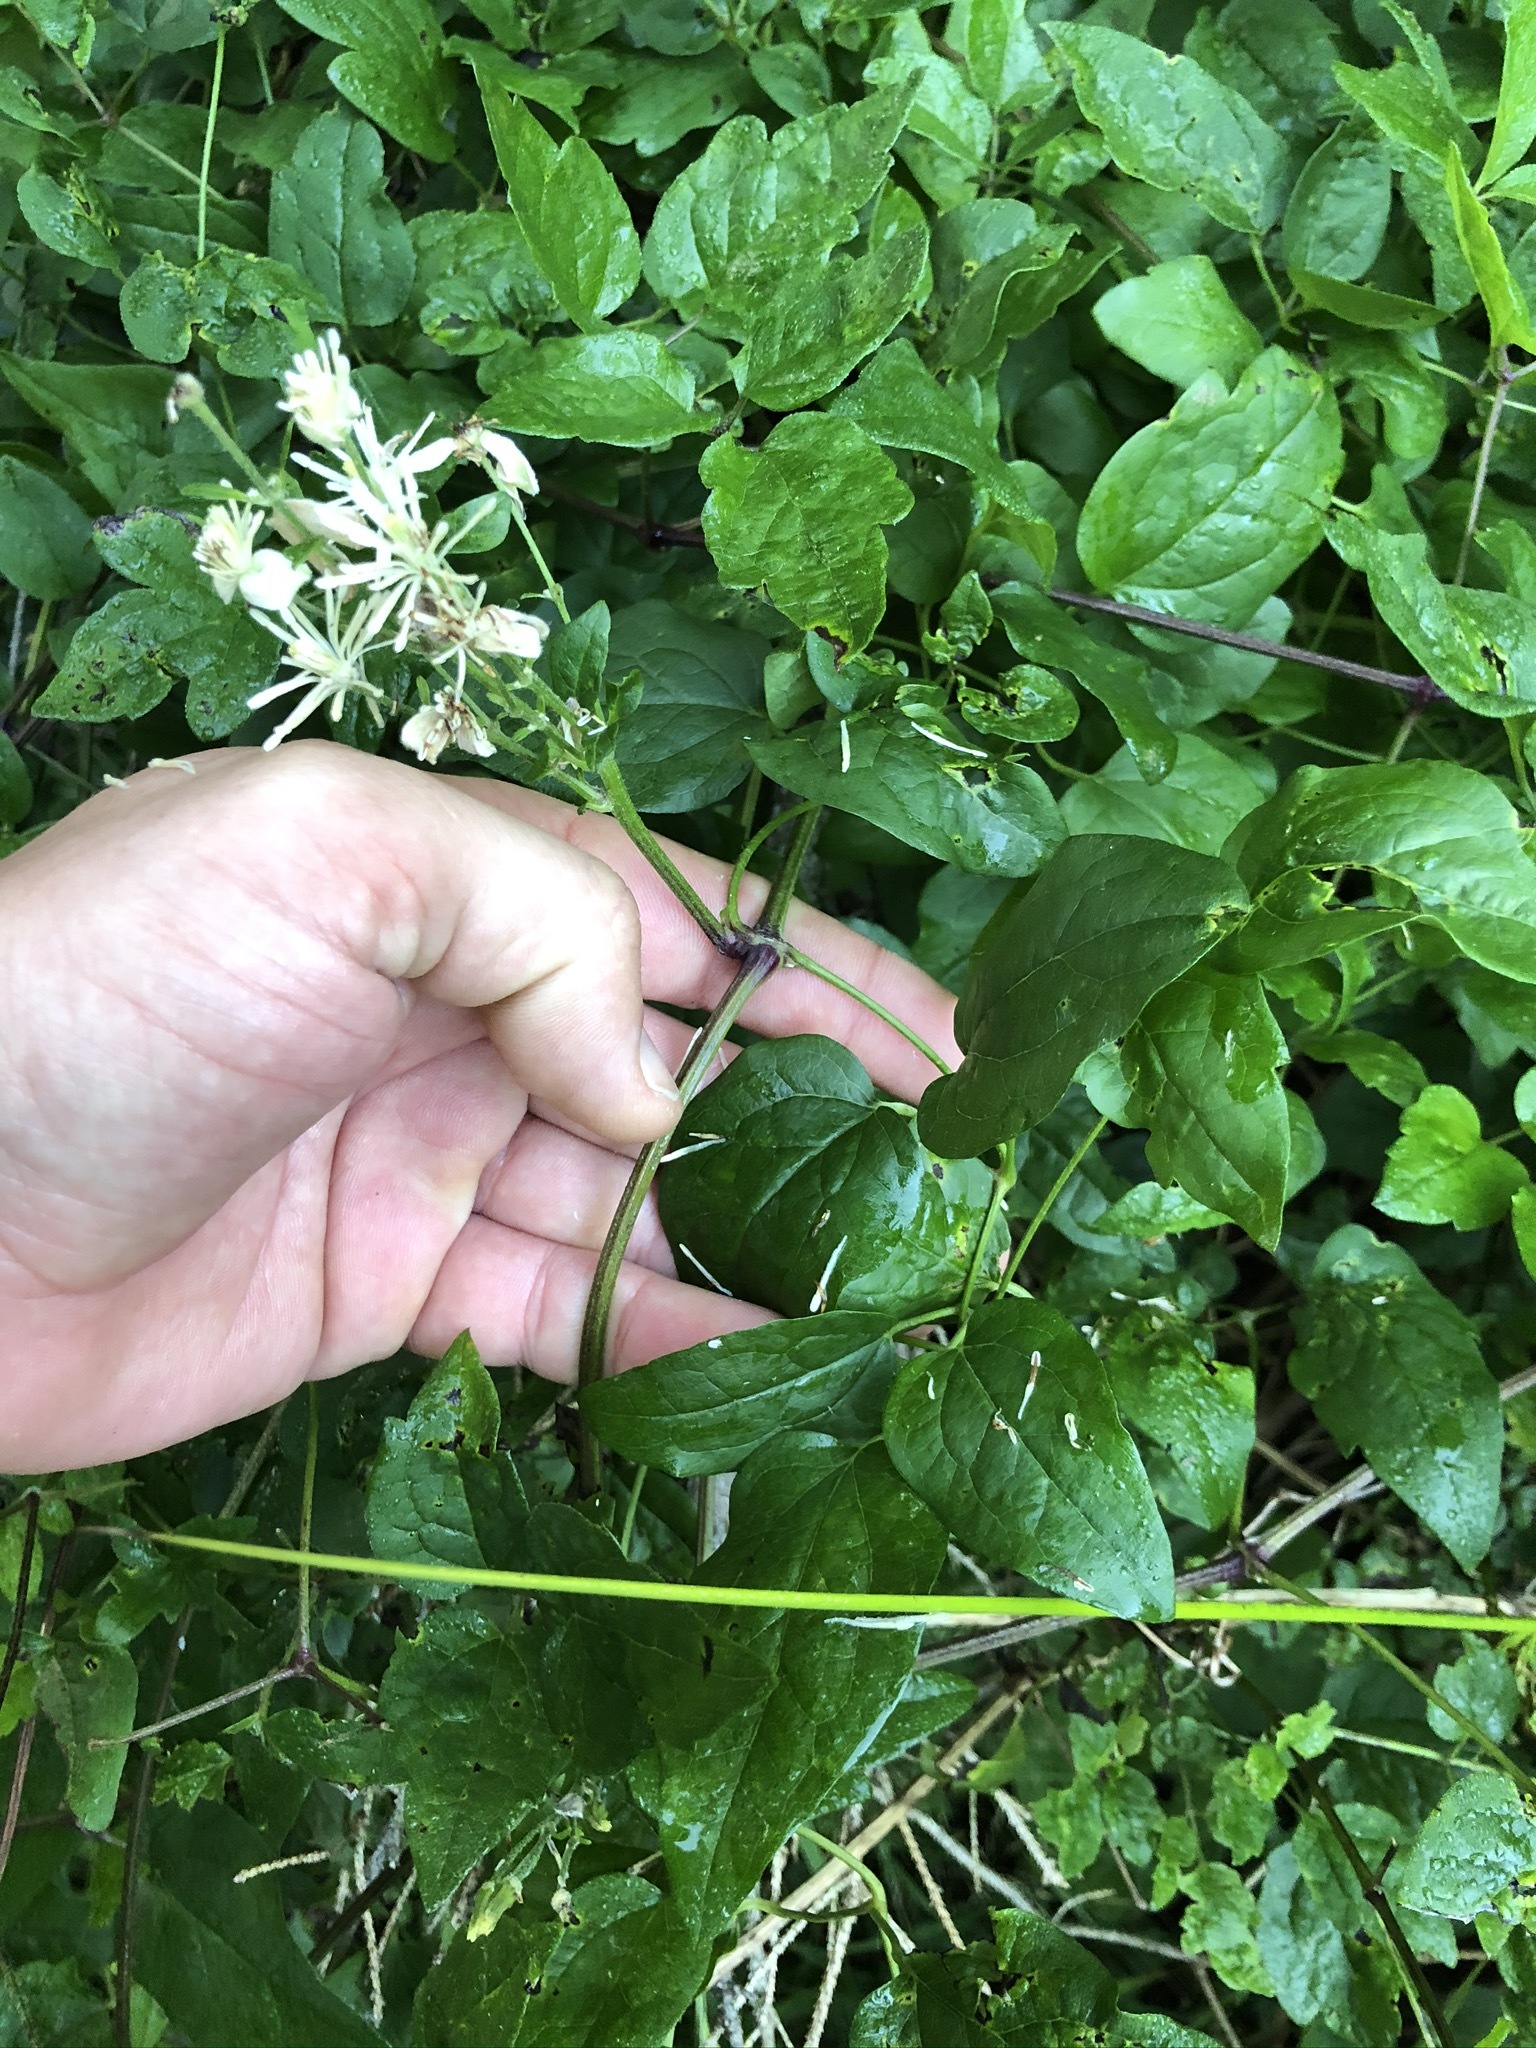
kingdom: Plantae
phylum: Tracheophyta
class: Magnoliopsida
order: Ranunculales
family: Ranunculaceae
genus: Clematis
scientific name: Clematis vitalba
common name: Evergreen clematis
